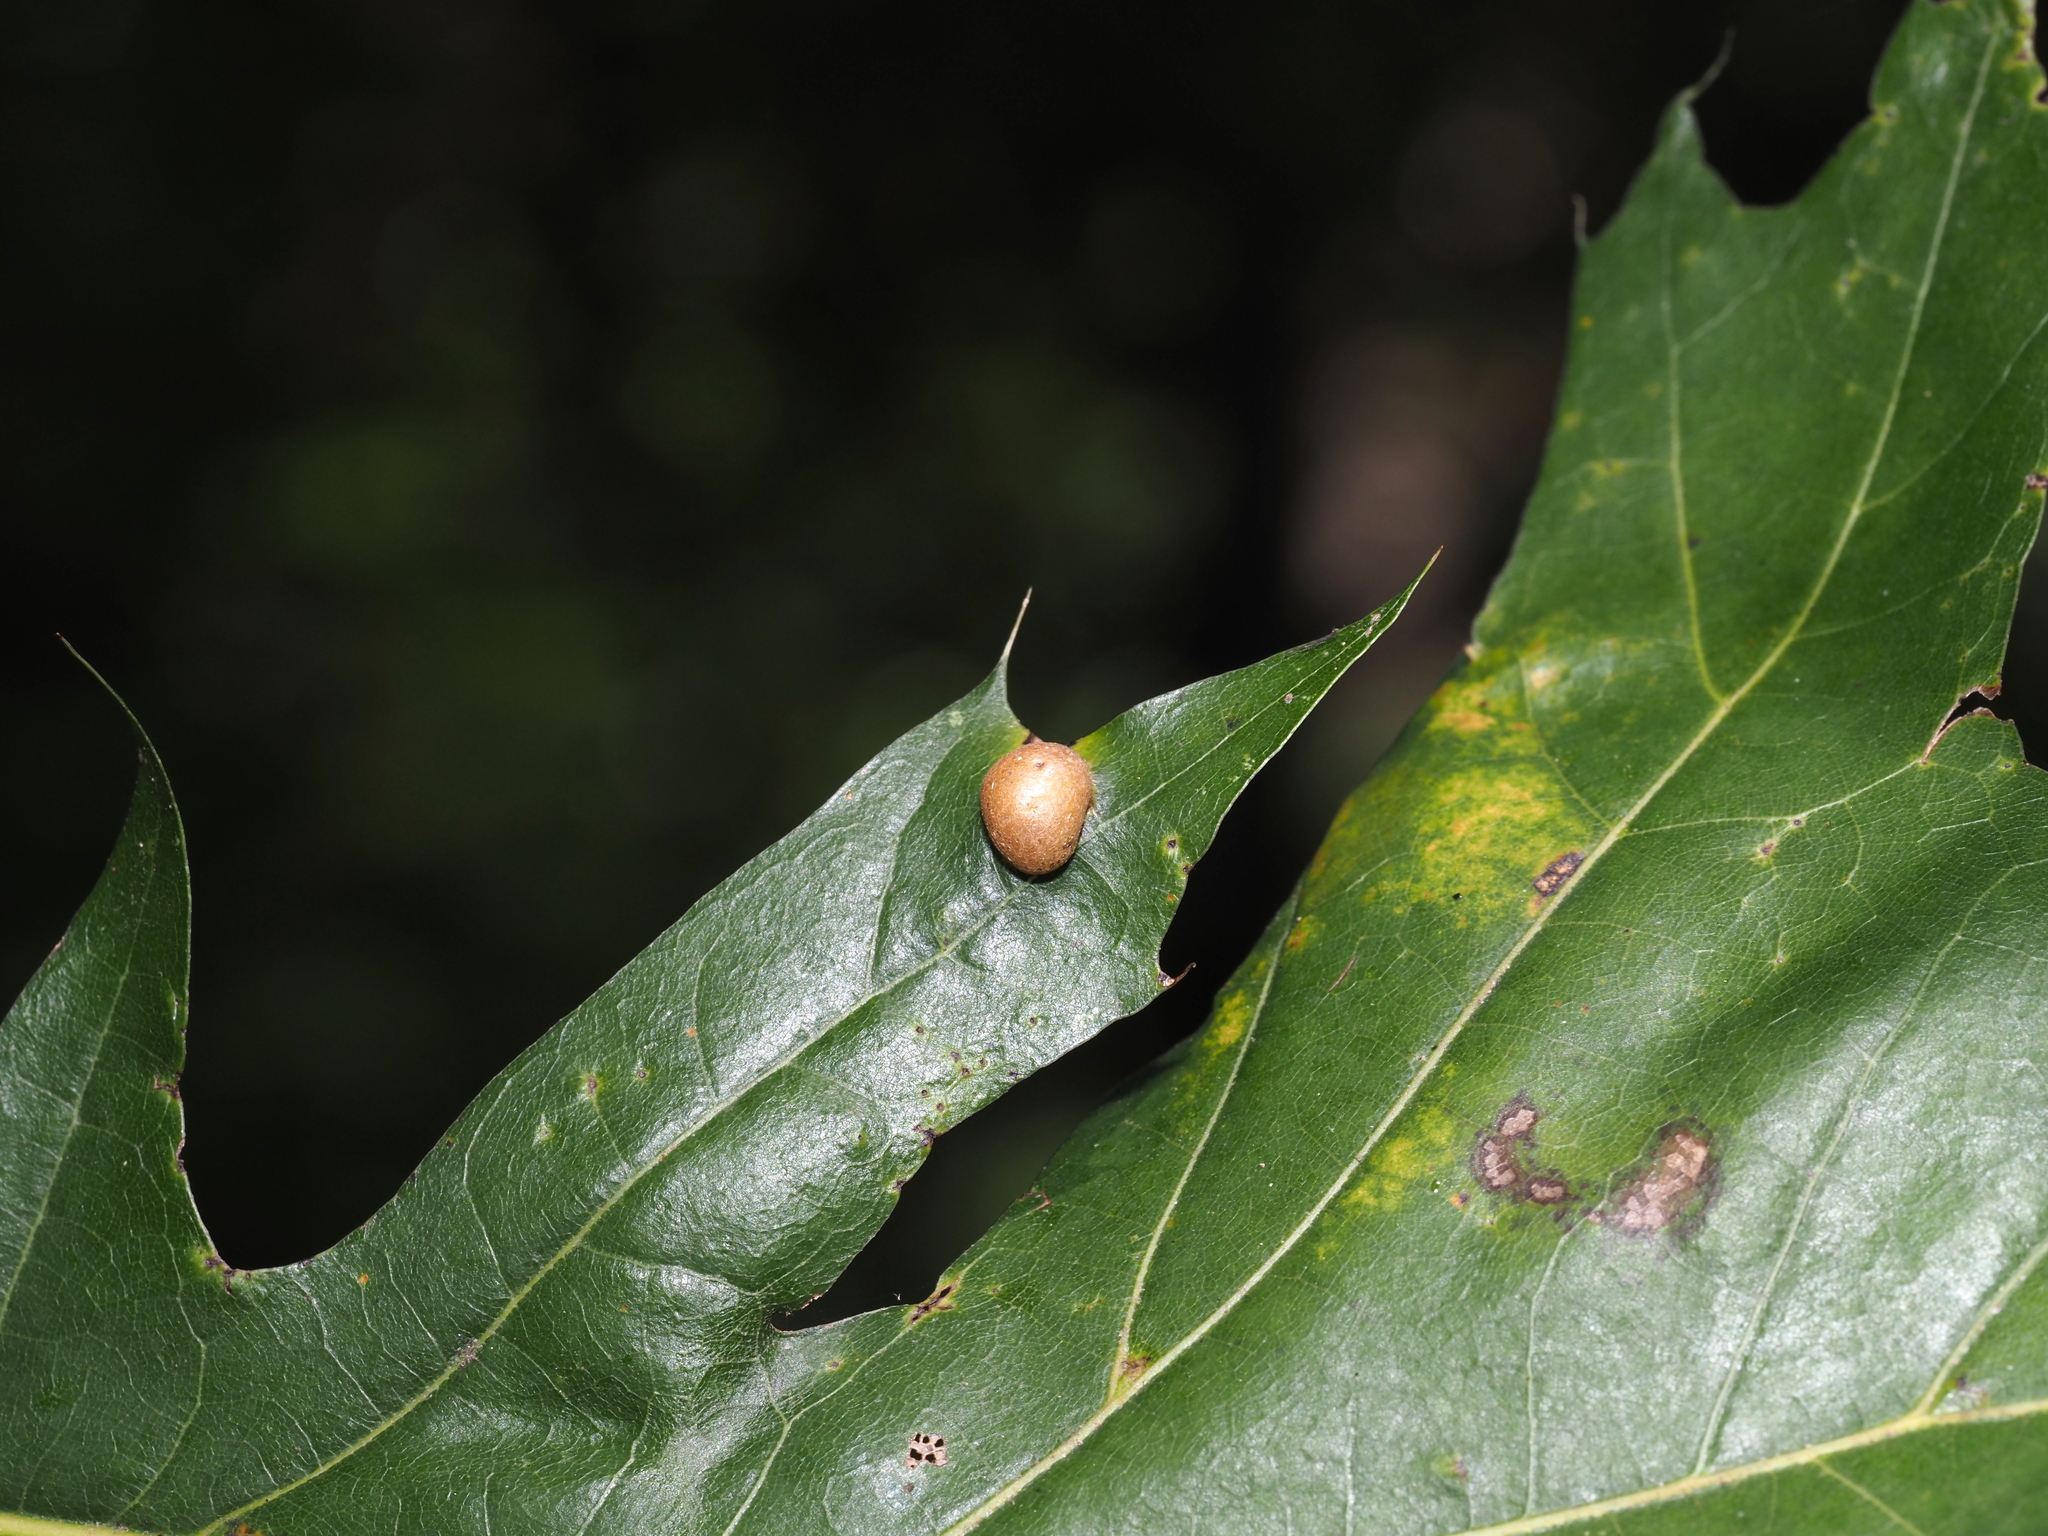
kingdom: Animalia
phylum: Arthropoda
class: Insecta
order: Diptera
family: Cecidomyiidae
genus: Polystepha
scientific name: Polystepha pilulae
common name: Oak leaf gall midge
